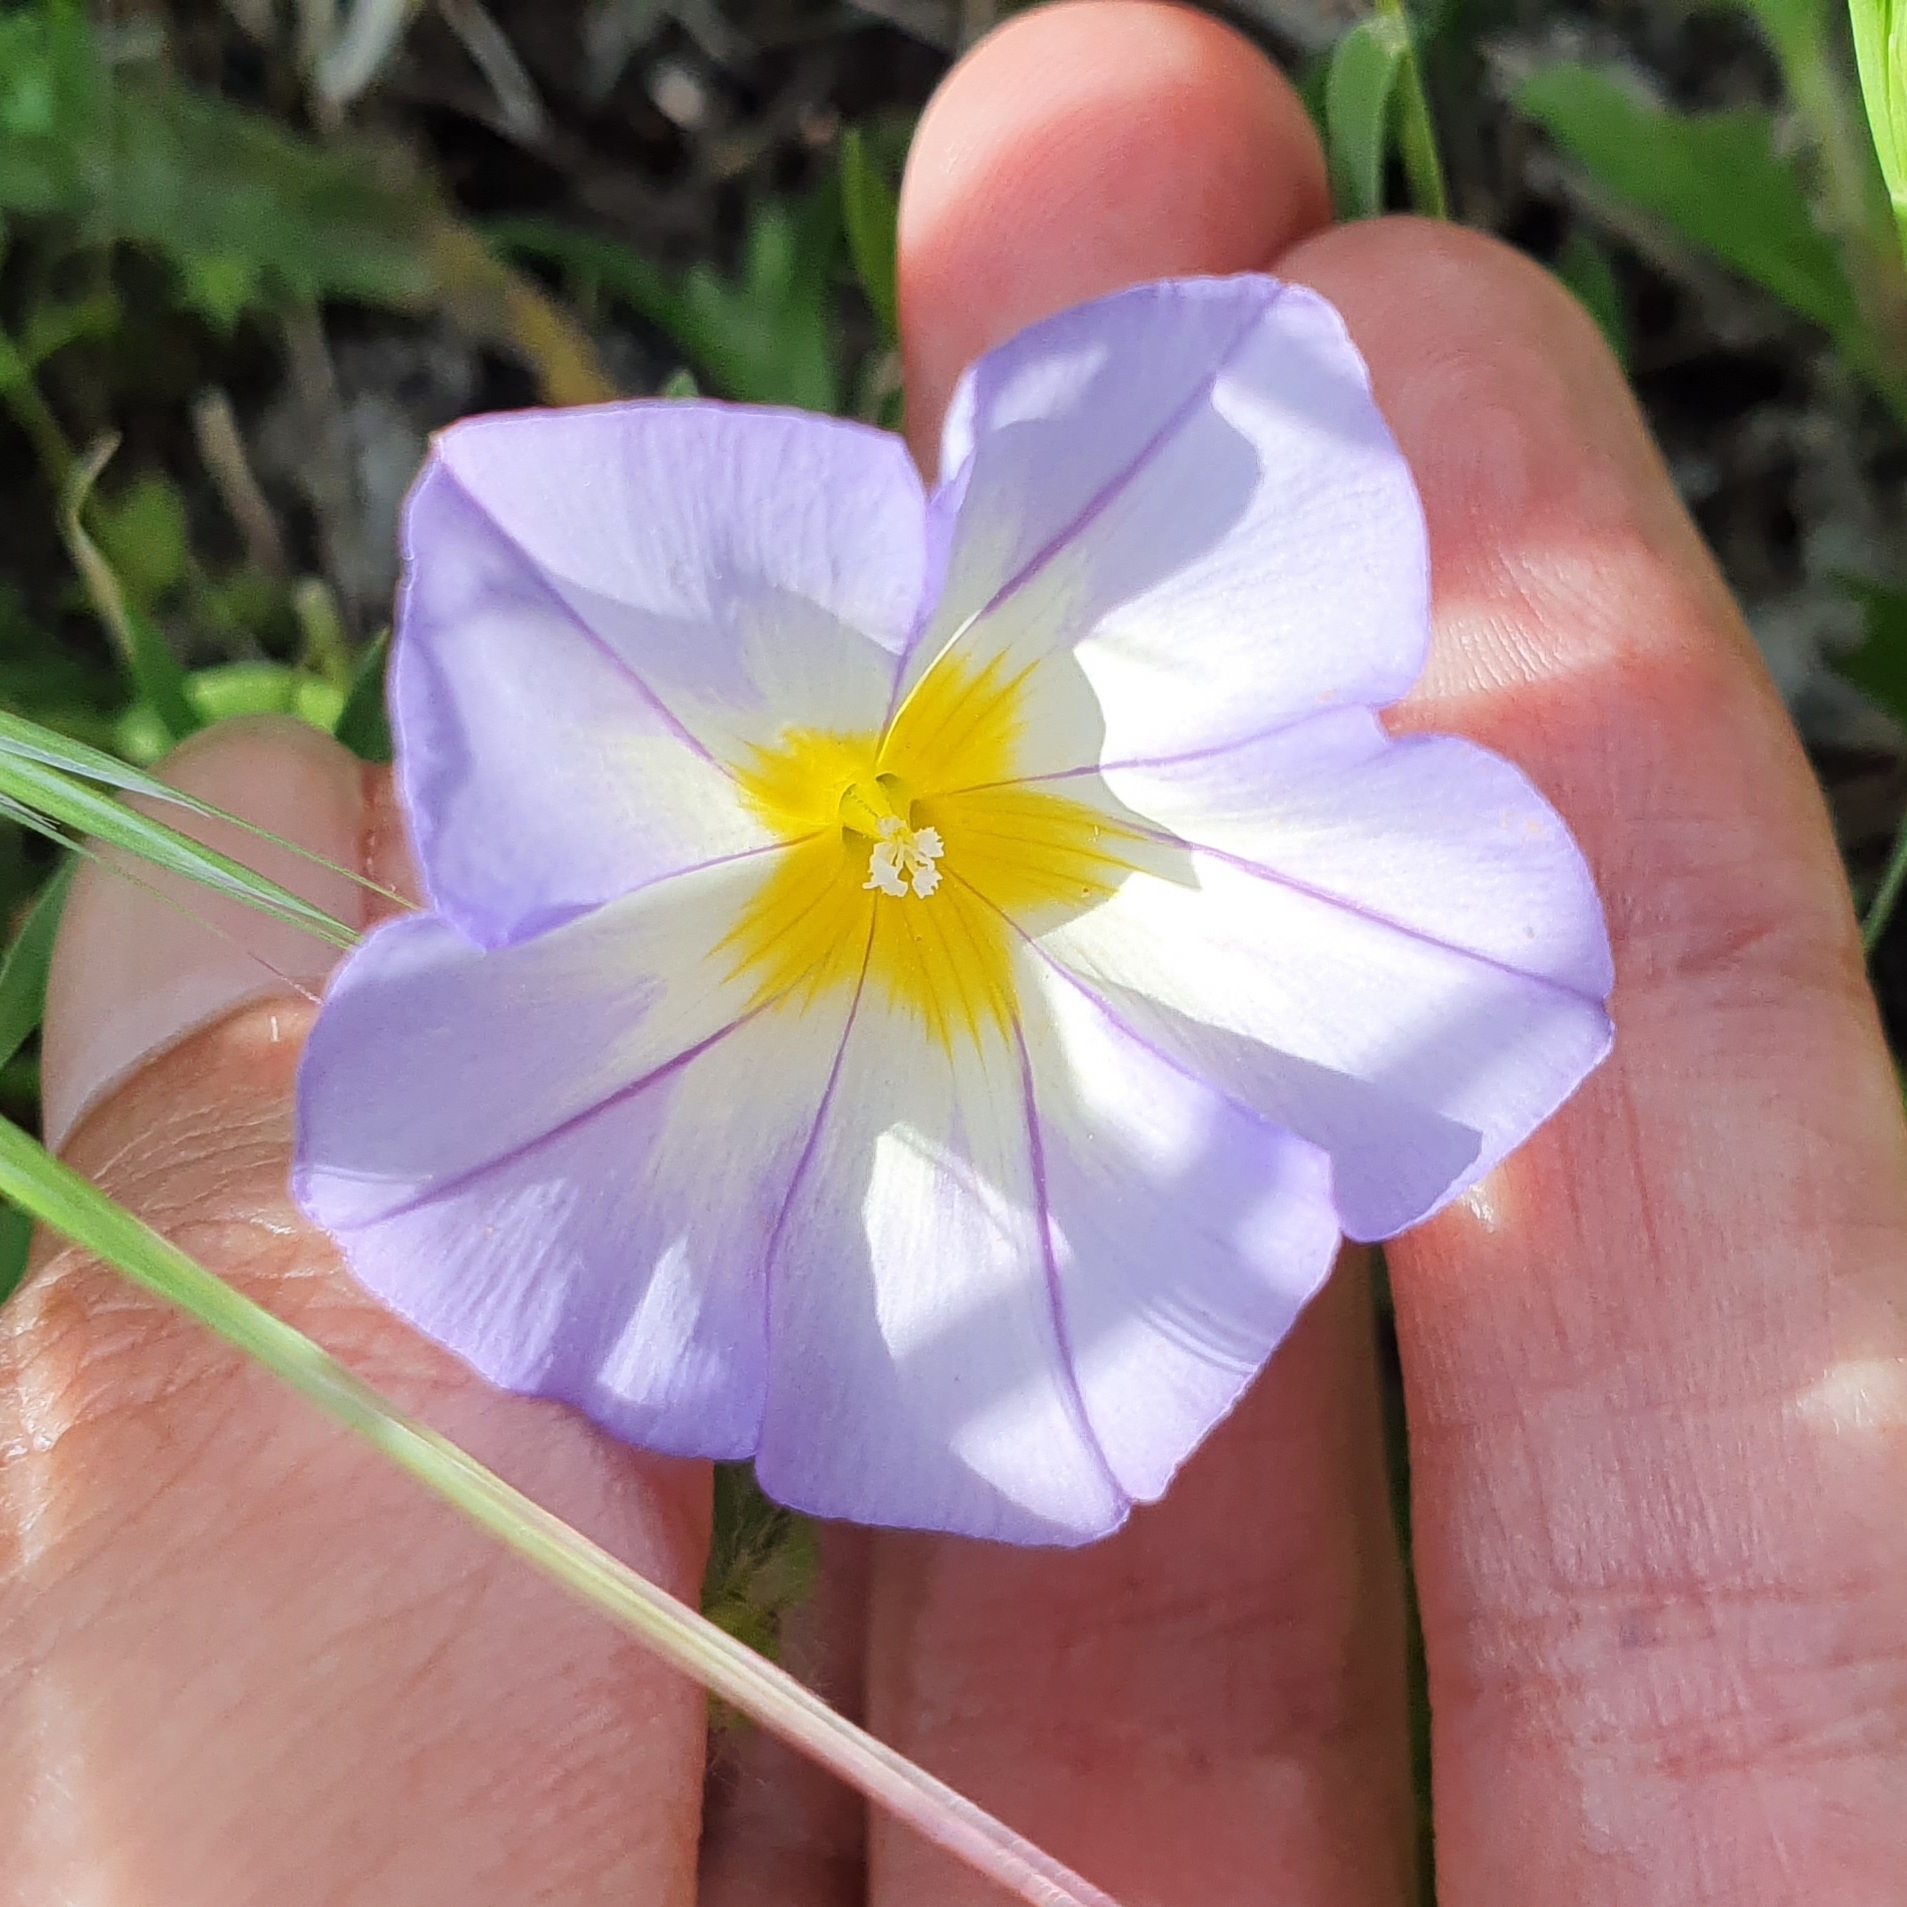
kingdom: Plantae
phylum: Tracheophyta
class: Magnoliopsida
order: Solanales
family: Convolvulaceae
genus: Convolvulus
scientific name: Convolvulus tricolor
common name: Dwarf morning-glory
